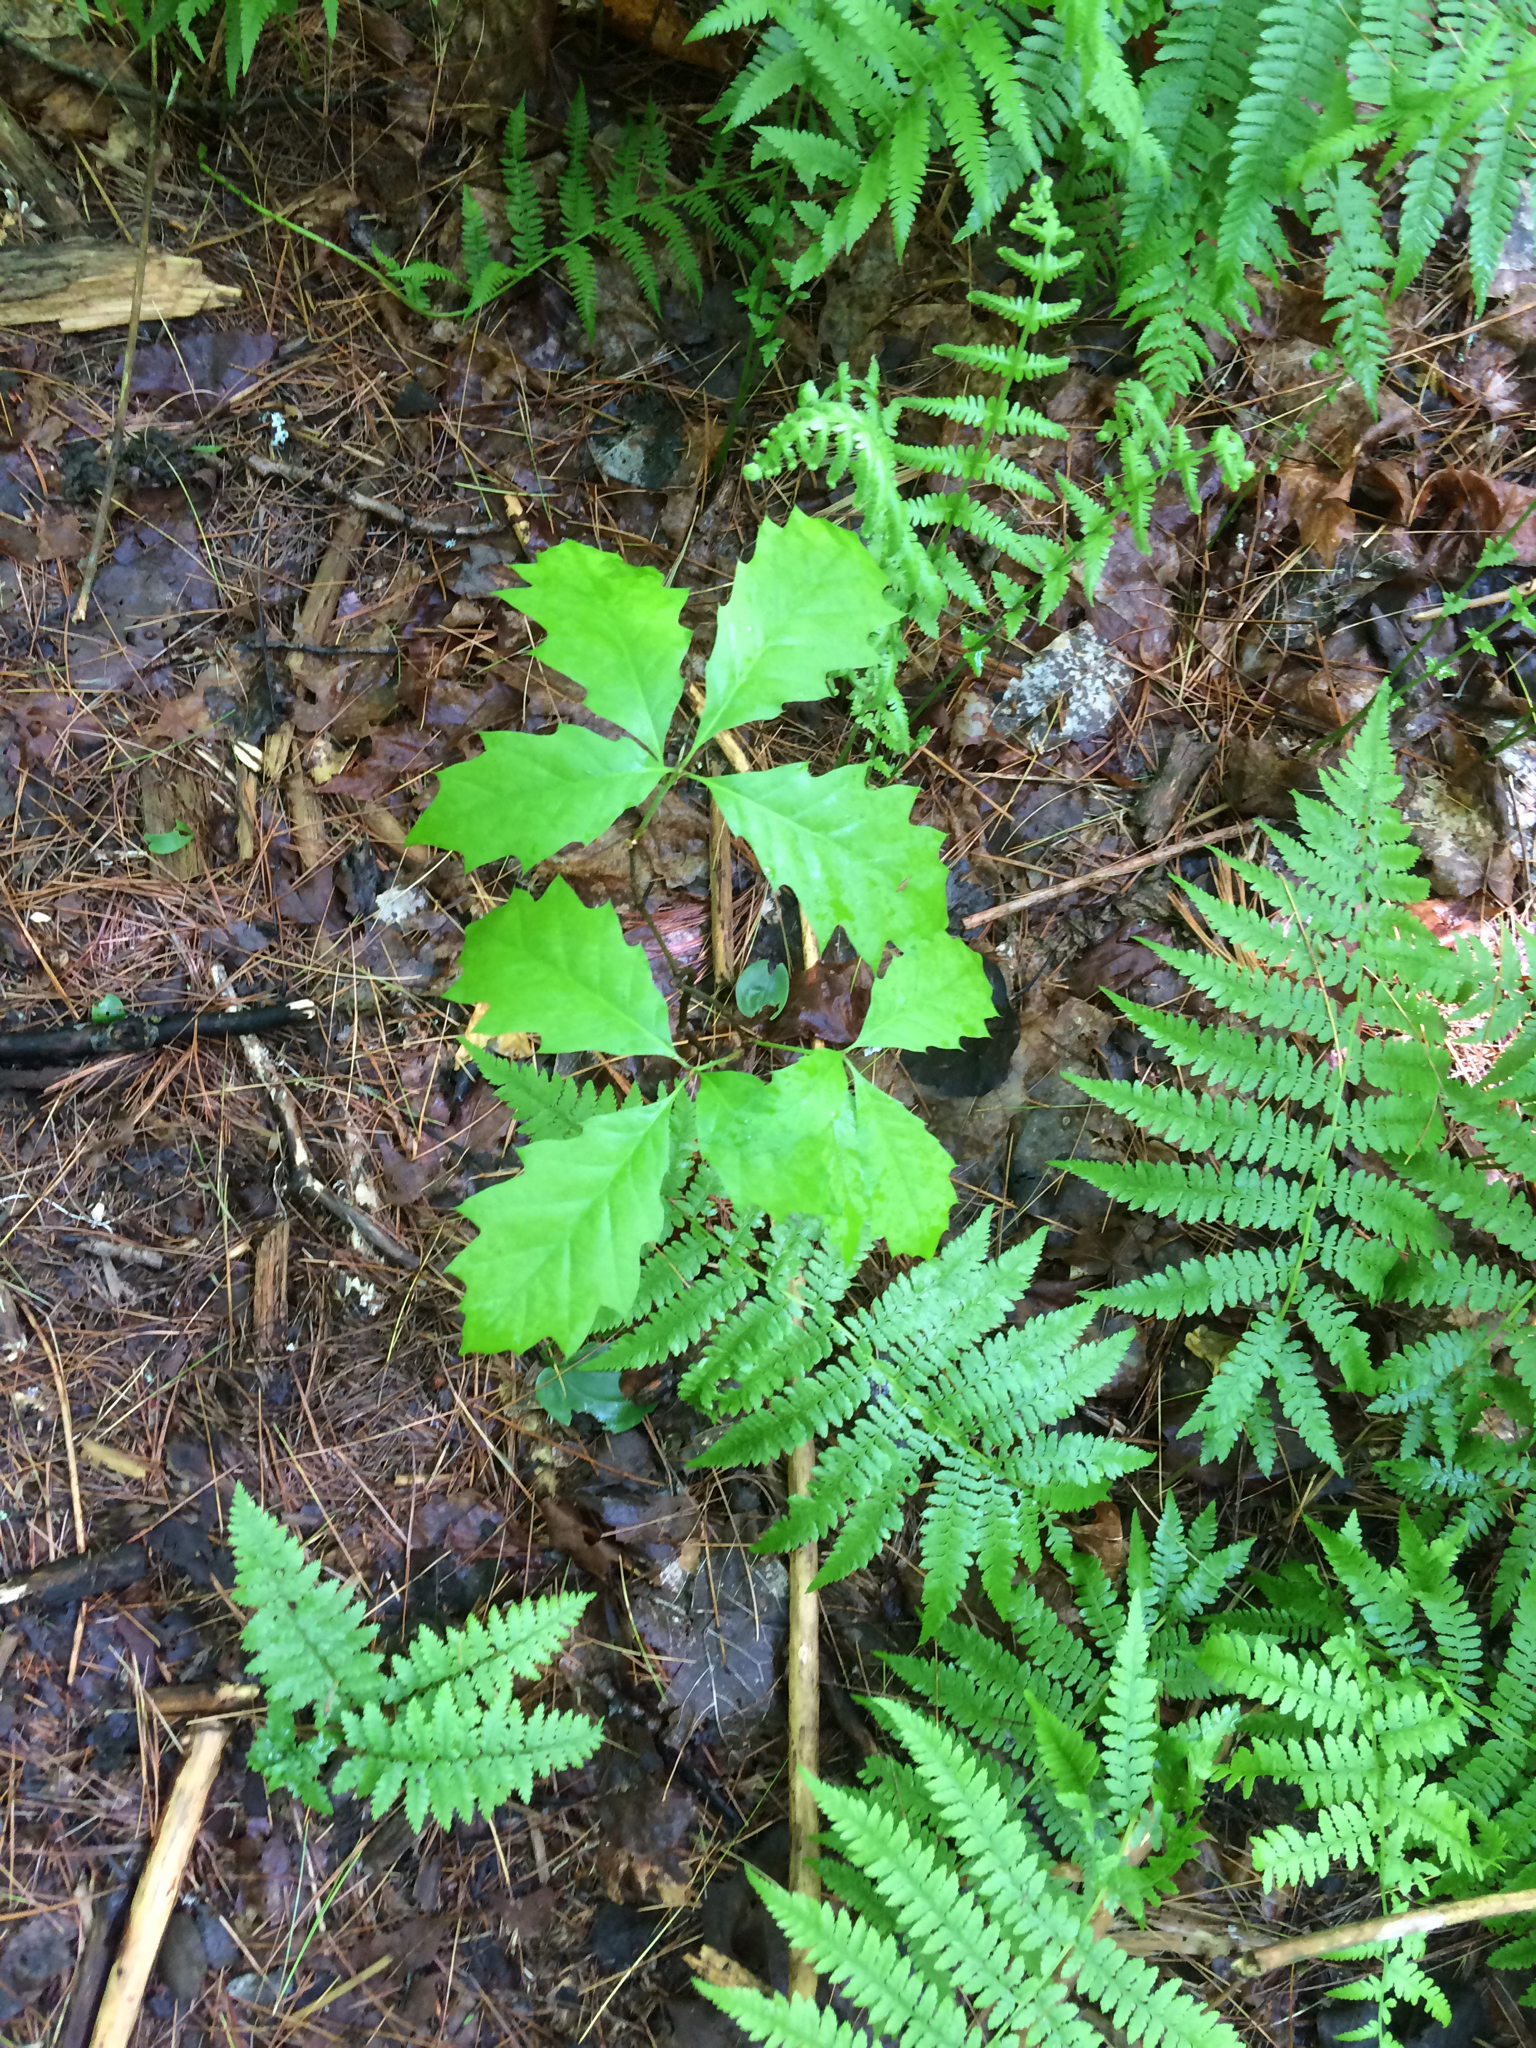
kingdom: Plantae
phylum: Tracheophyta
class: Magnoliopsida
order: Fagales
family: Fagaceae
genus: Quercus
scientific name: Quercus rubra
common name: Red oak
